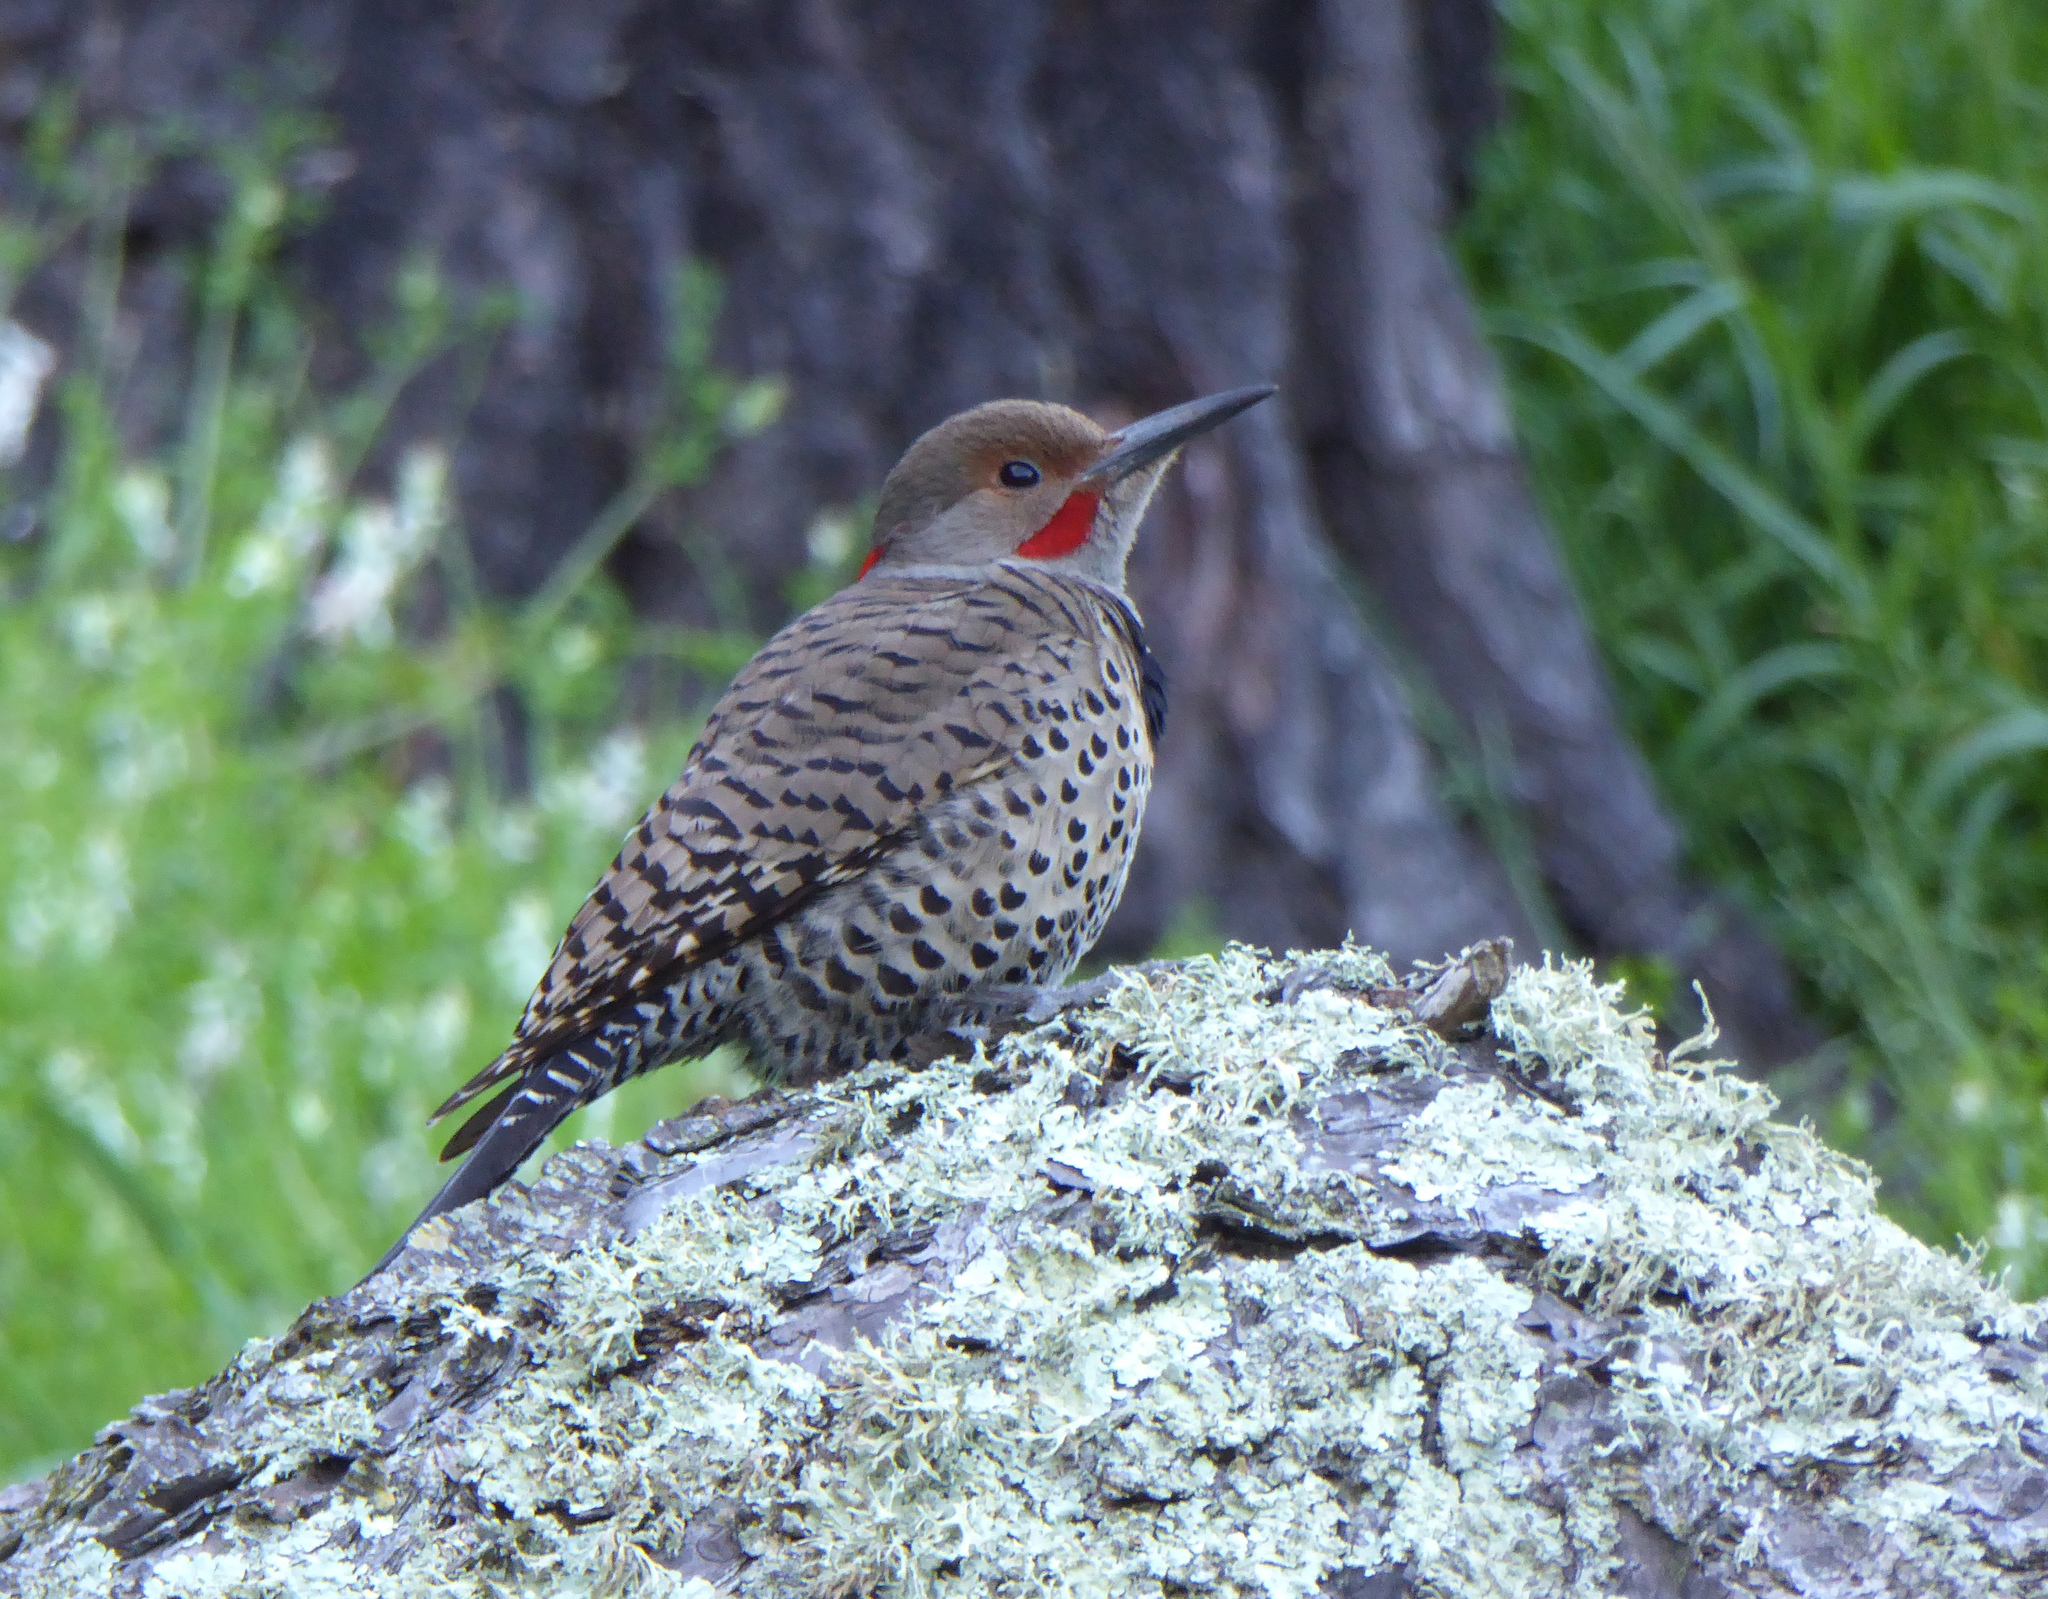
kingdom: Animalia
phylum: Chordata
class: Aves
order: Piciformes
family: Picidae
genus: Colaptes
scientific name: Colaptes
